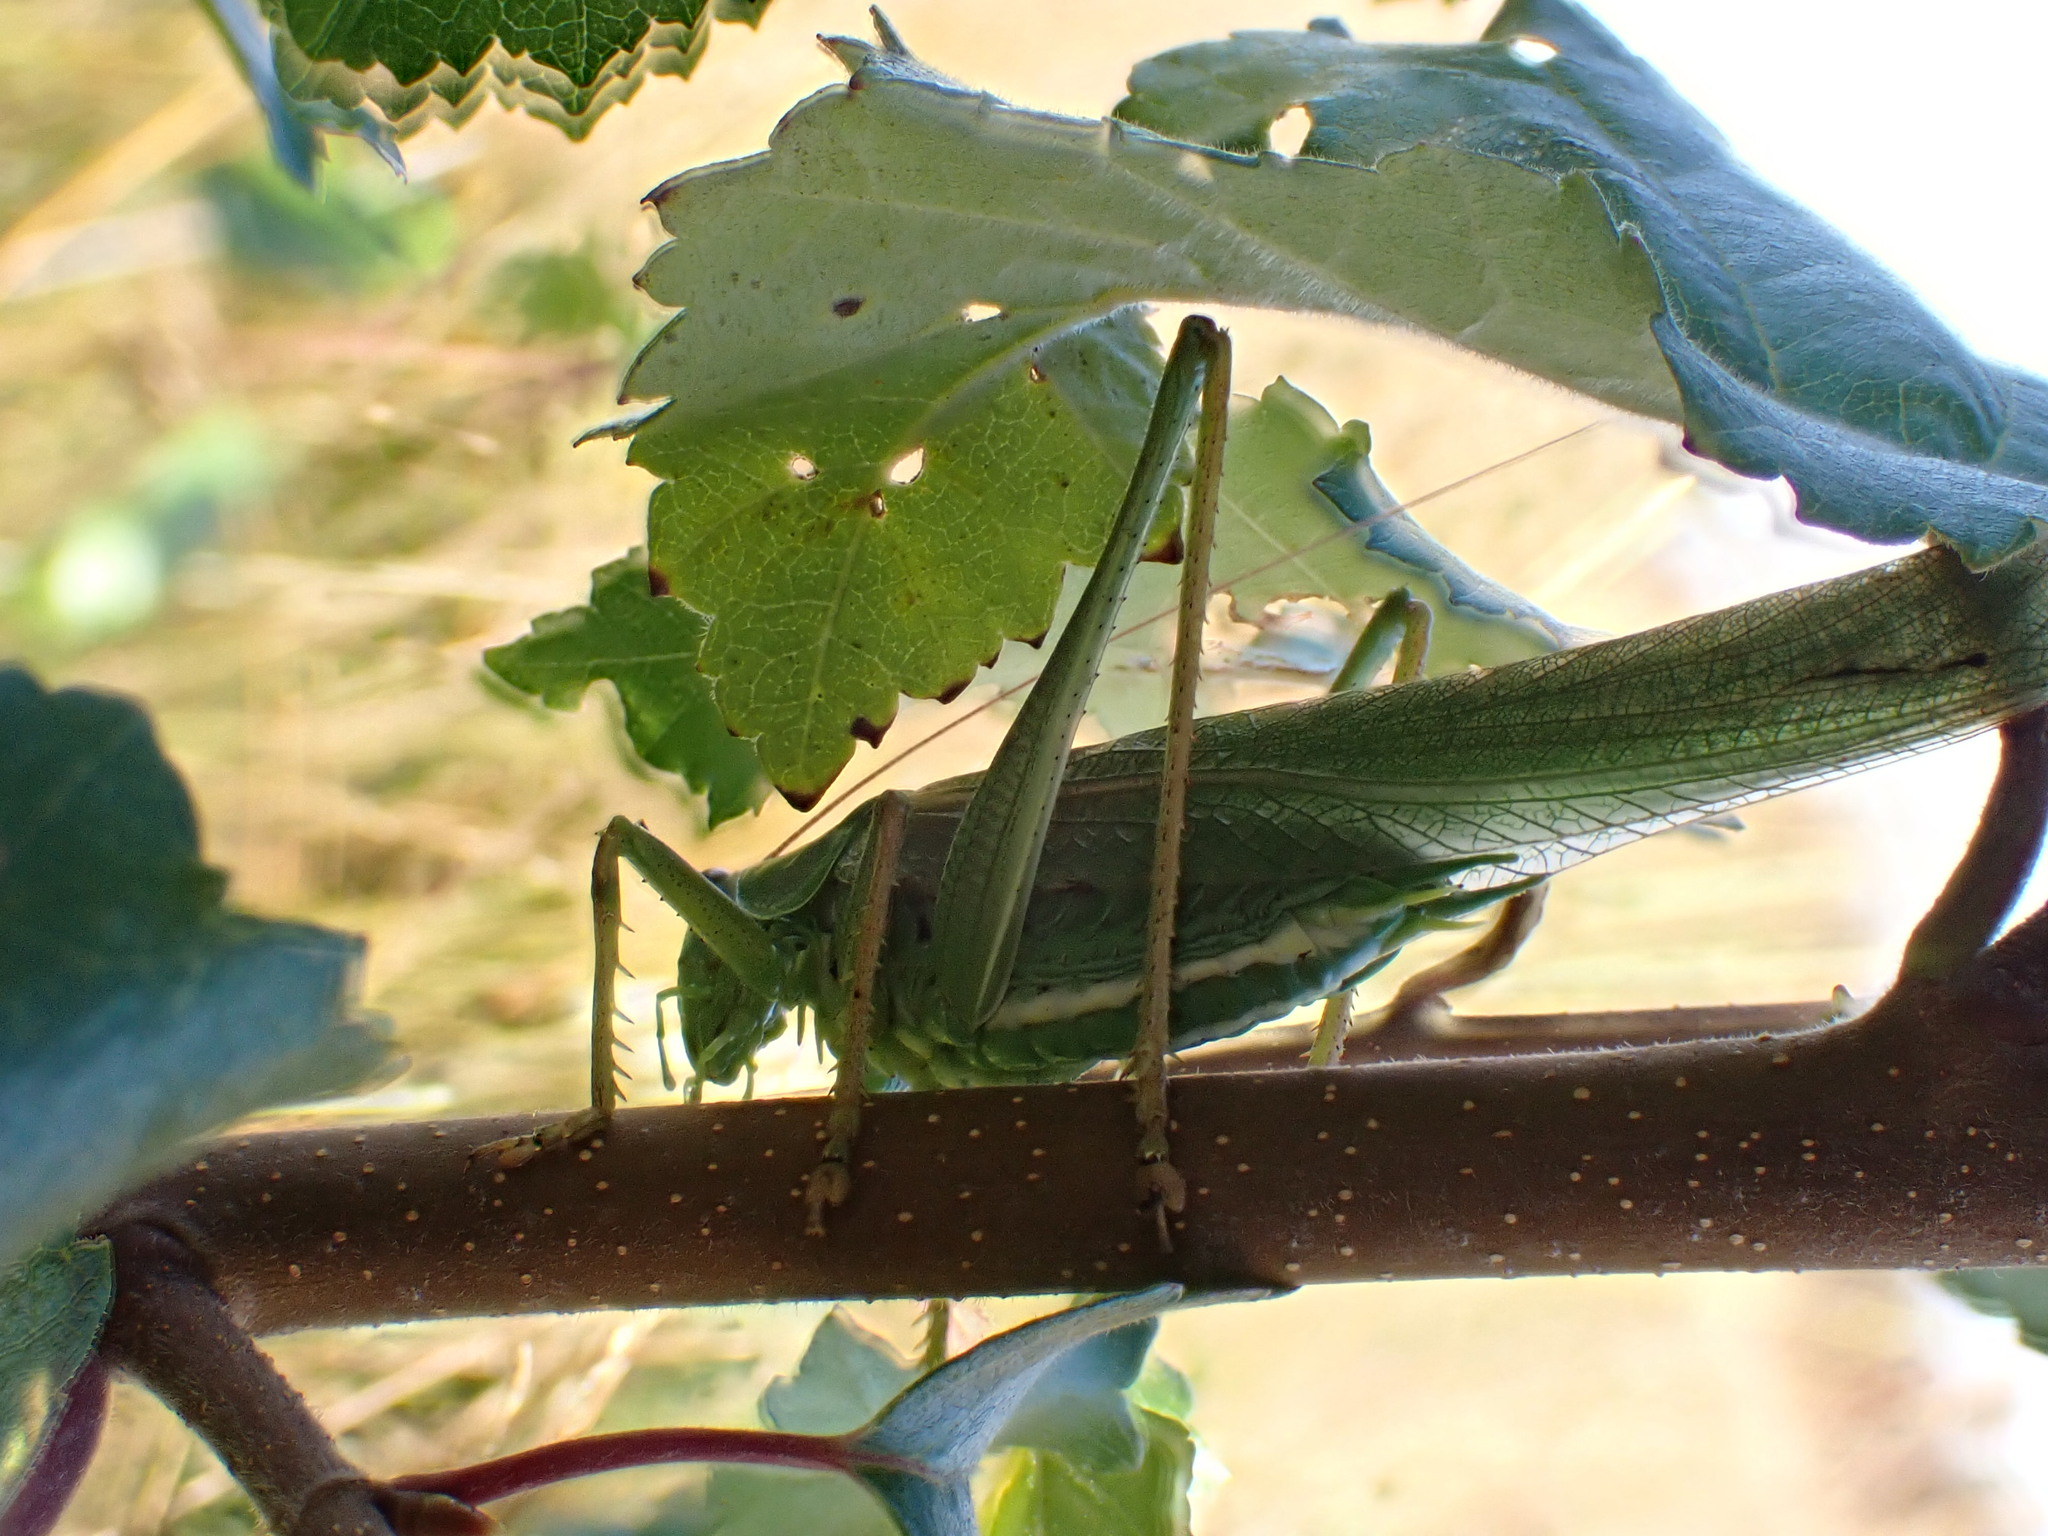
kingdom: Animalia
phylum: Arthropoda
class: Insecta
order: Orthoptera
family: Tettigoniidae
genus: Tettigonia
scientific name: Tettigonia viridissima
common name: Great green bush-cricket
